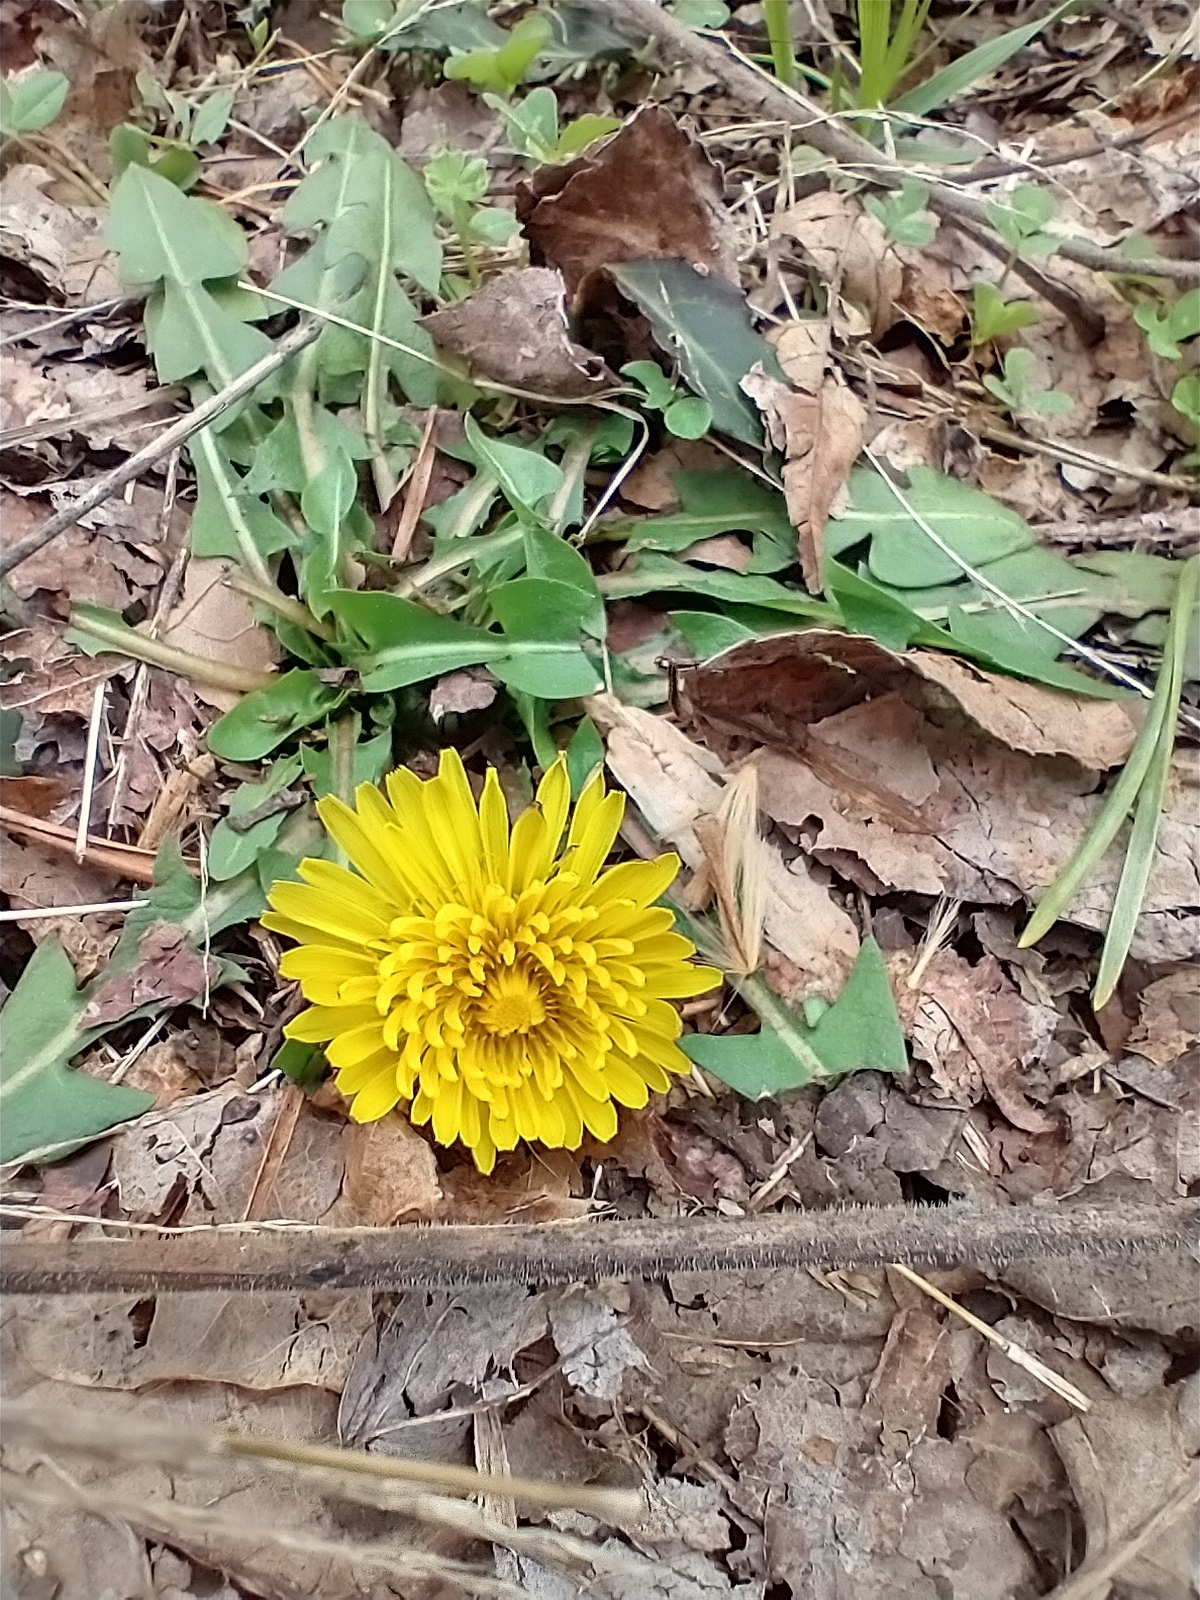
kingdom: Plantae
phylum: Tracheophyta
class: Magnoliopsida
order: Asterales
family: Asteraceae
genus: Taraxacum
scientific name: Taraxacum
